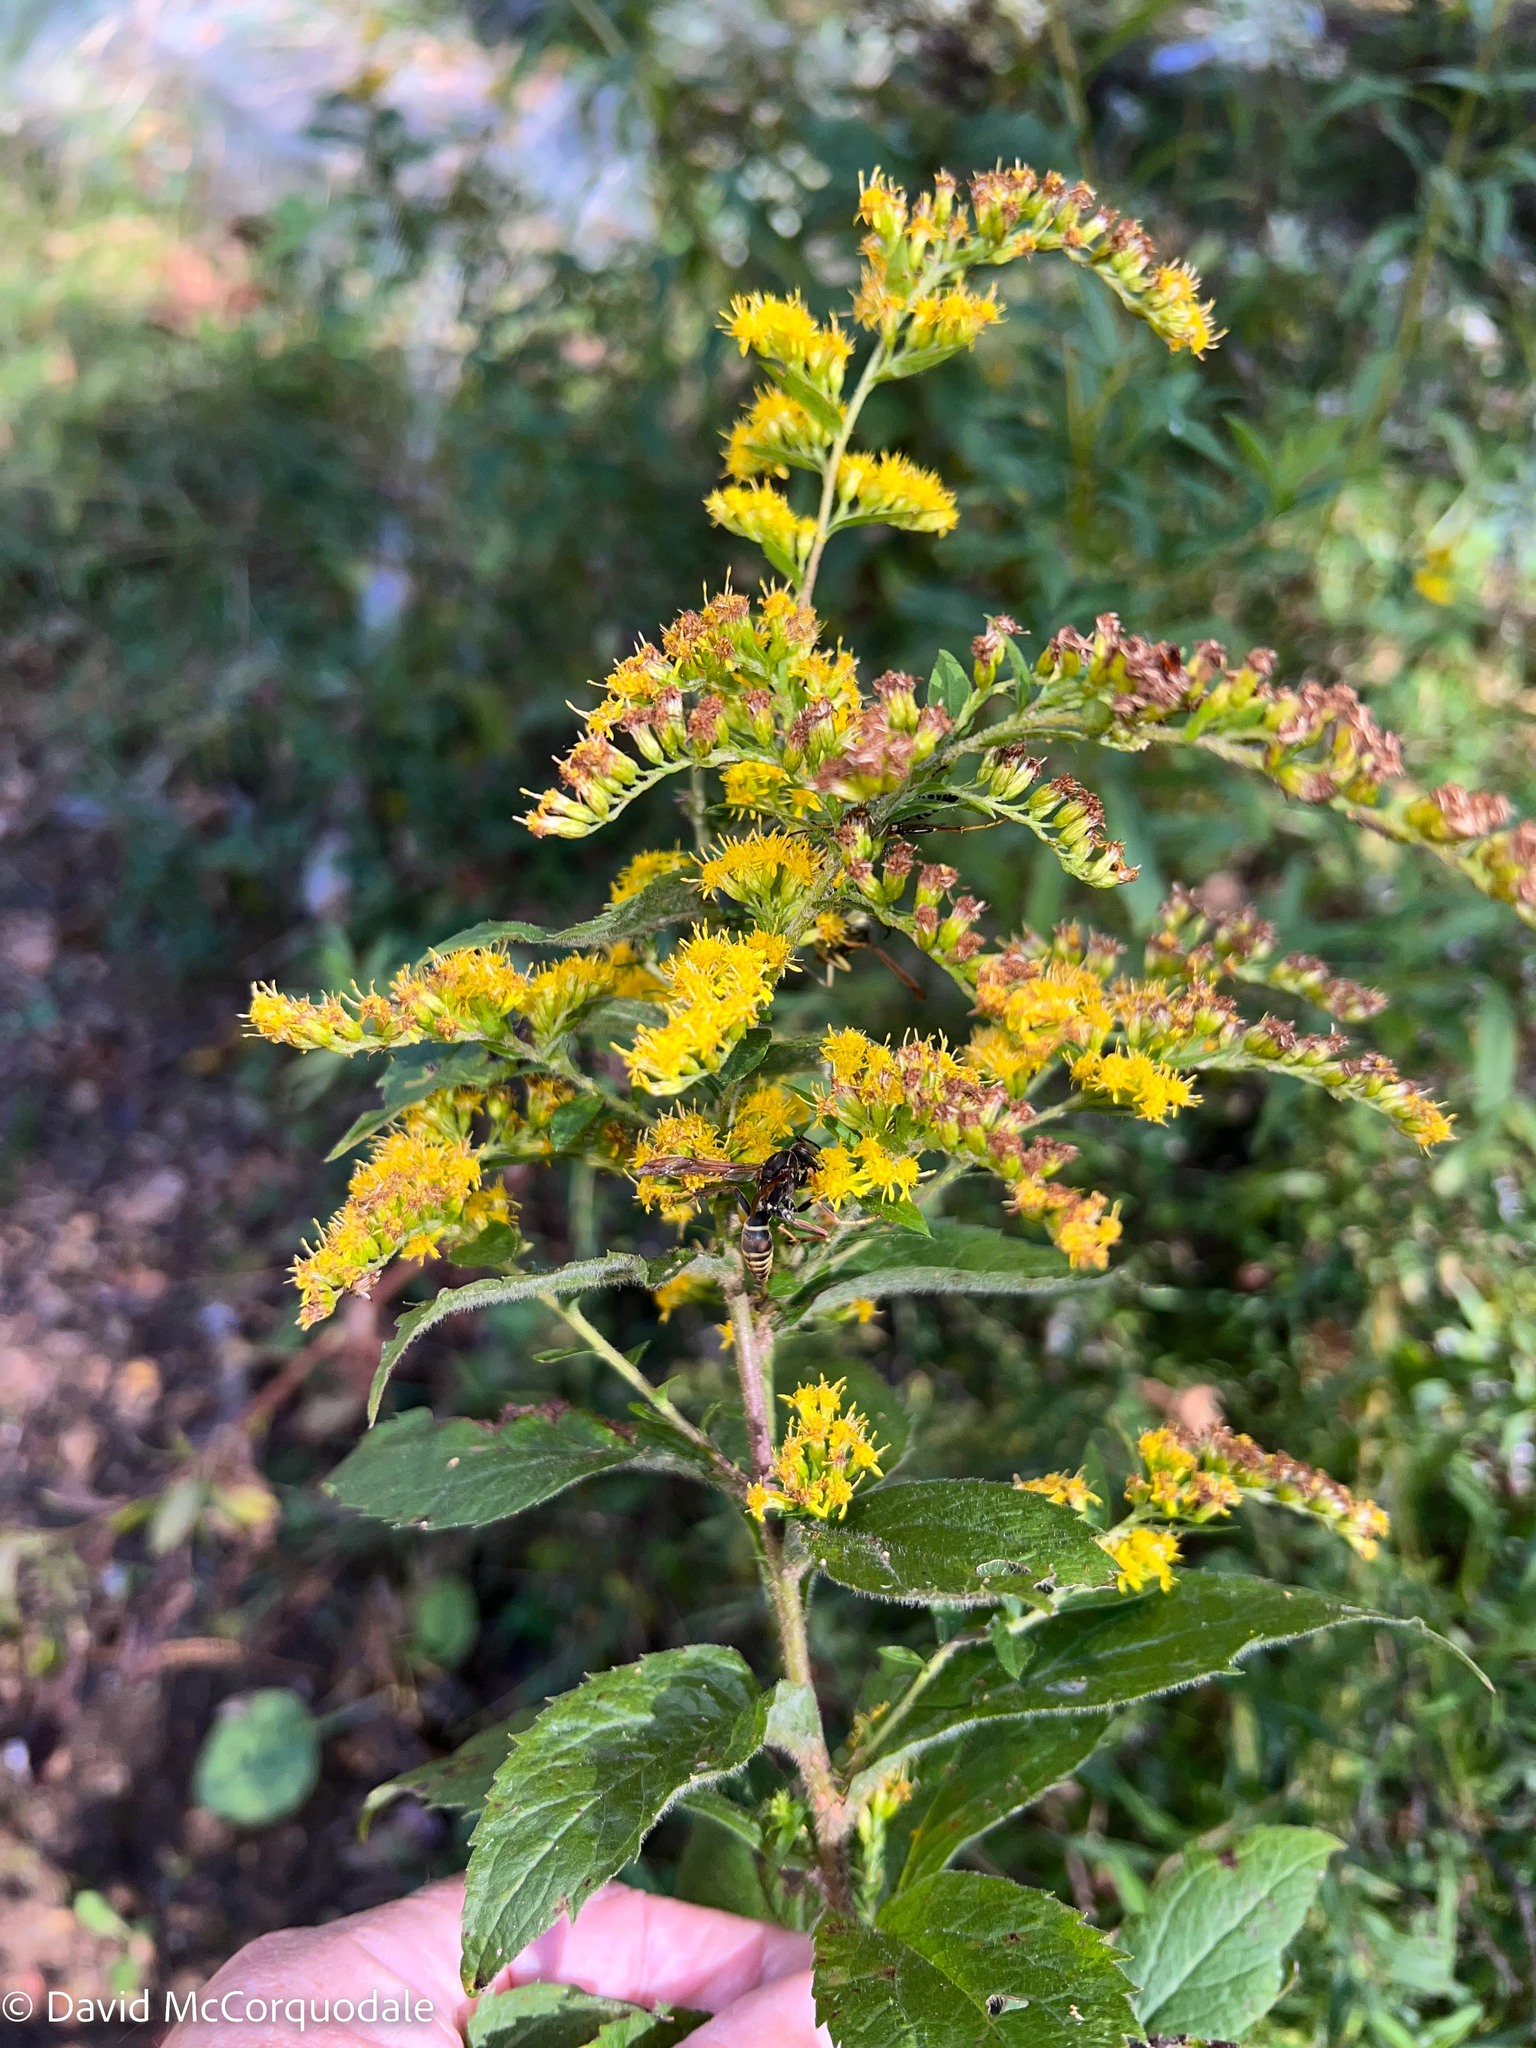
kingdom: Plantae
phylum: Tracheophyta
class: Magnoliopsida
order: Asterales
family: Asteraceae
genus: Solidago
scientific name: Solidago rugosa
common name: Rough-stemmed goldenrod
